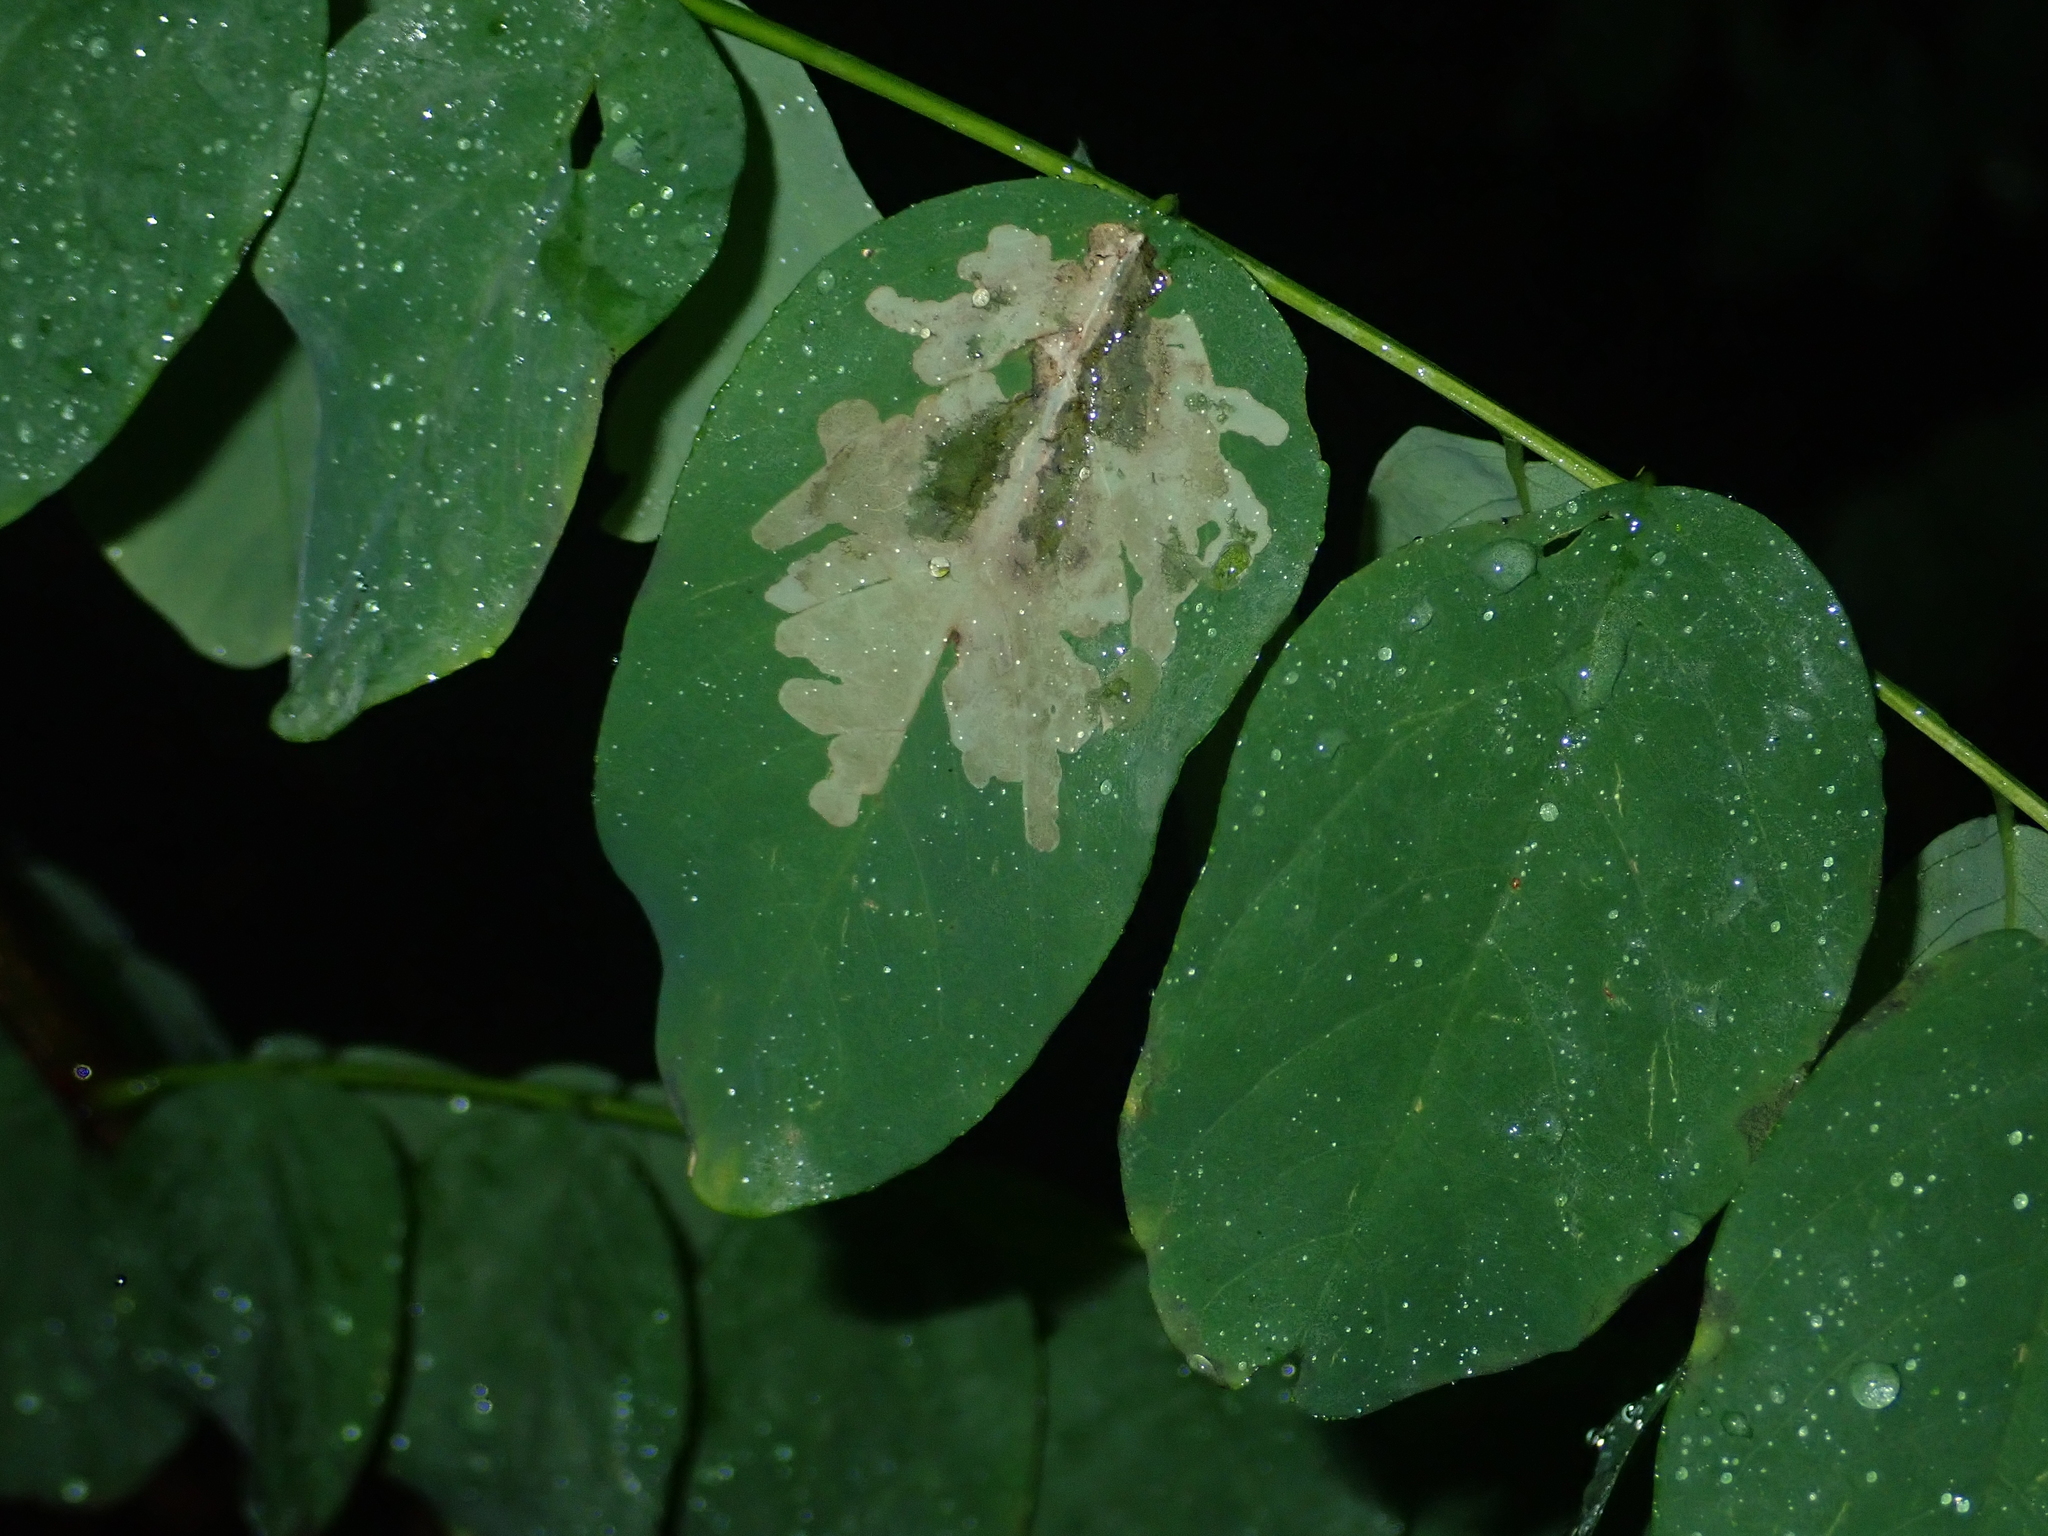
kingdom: Animalia
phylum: Arthropoda
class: Insecta
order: Lepidoptera
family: Gracillariidae
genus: Parectopa
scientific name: Parectopa robiniella
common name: Locust digitate leafminer
